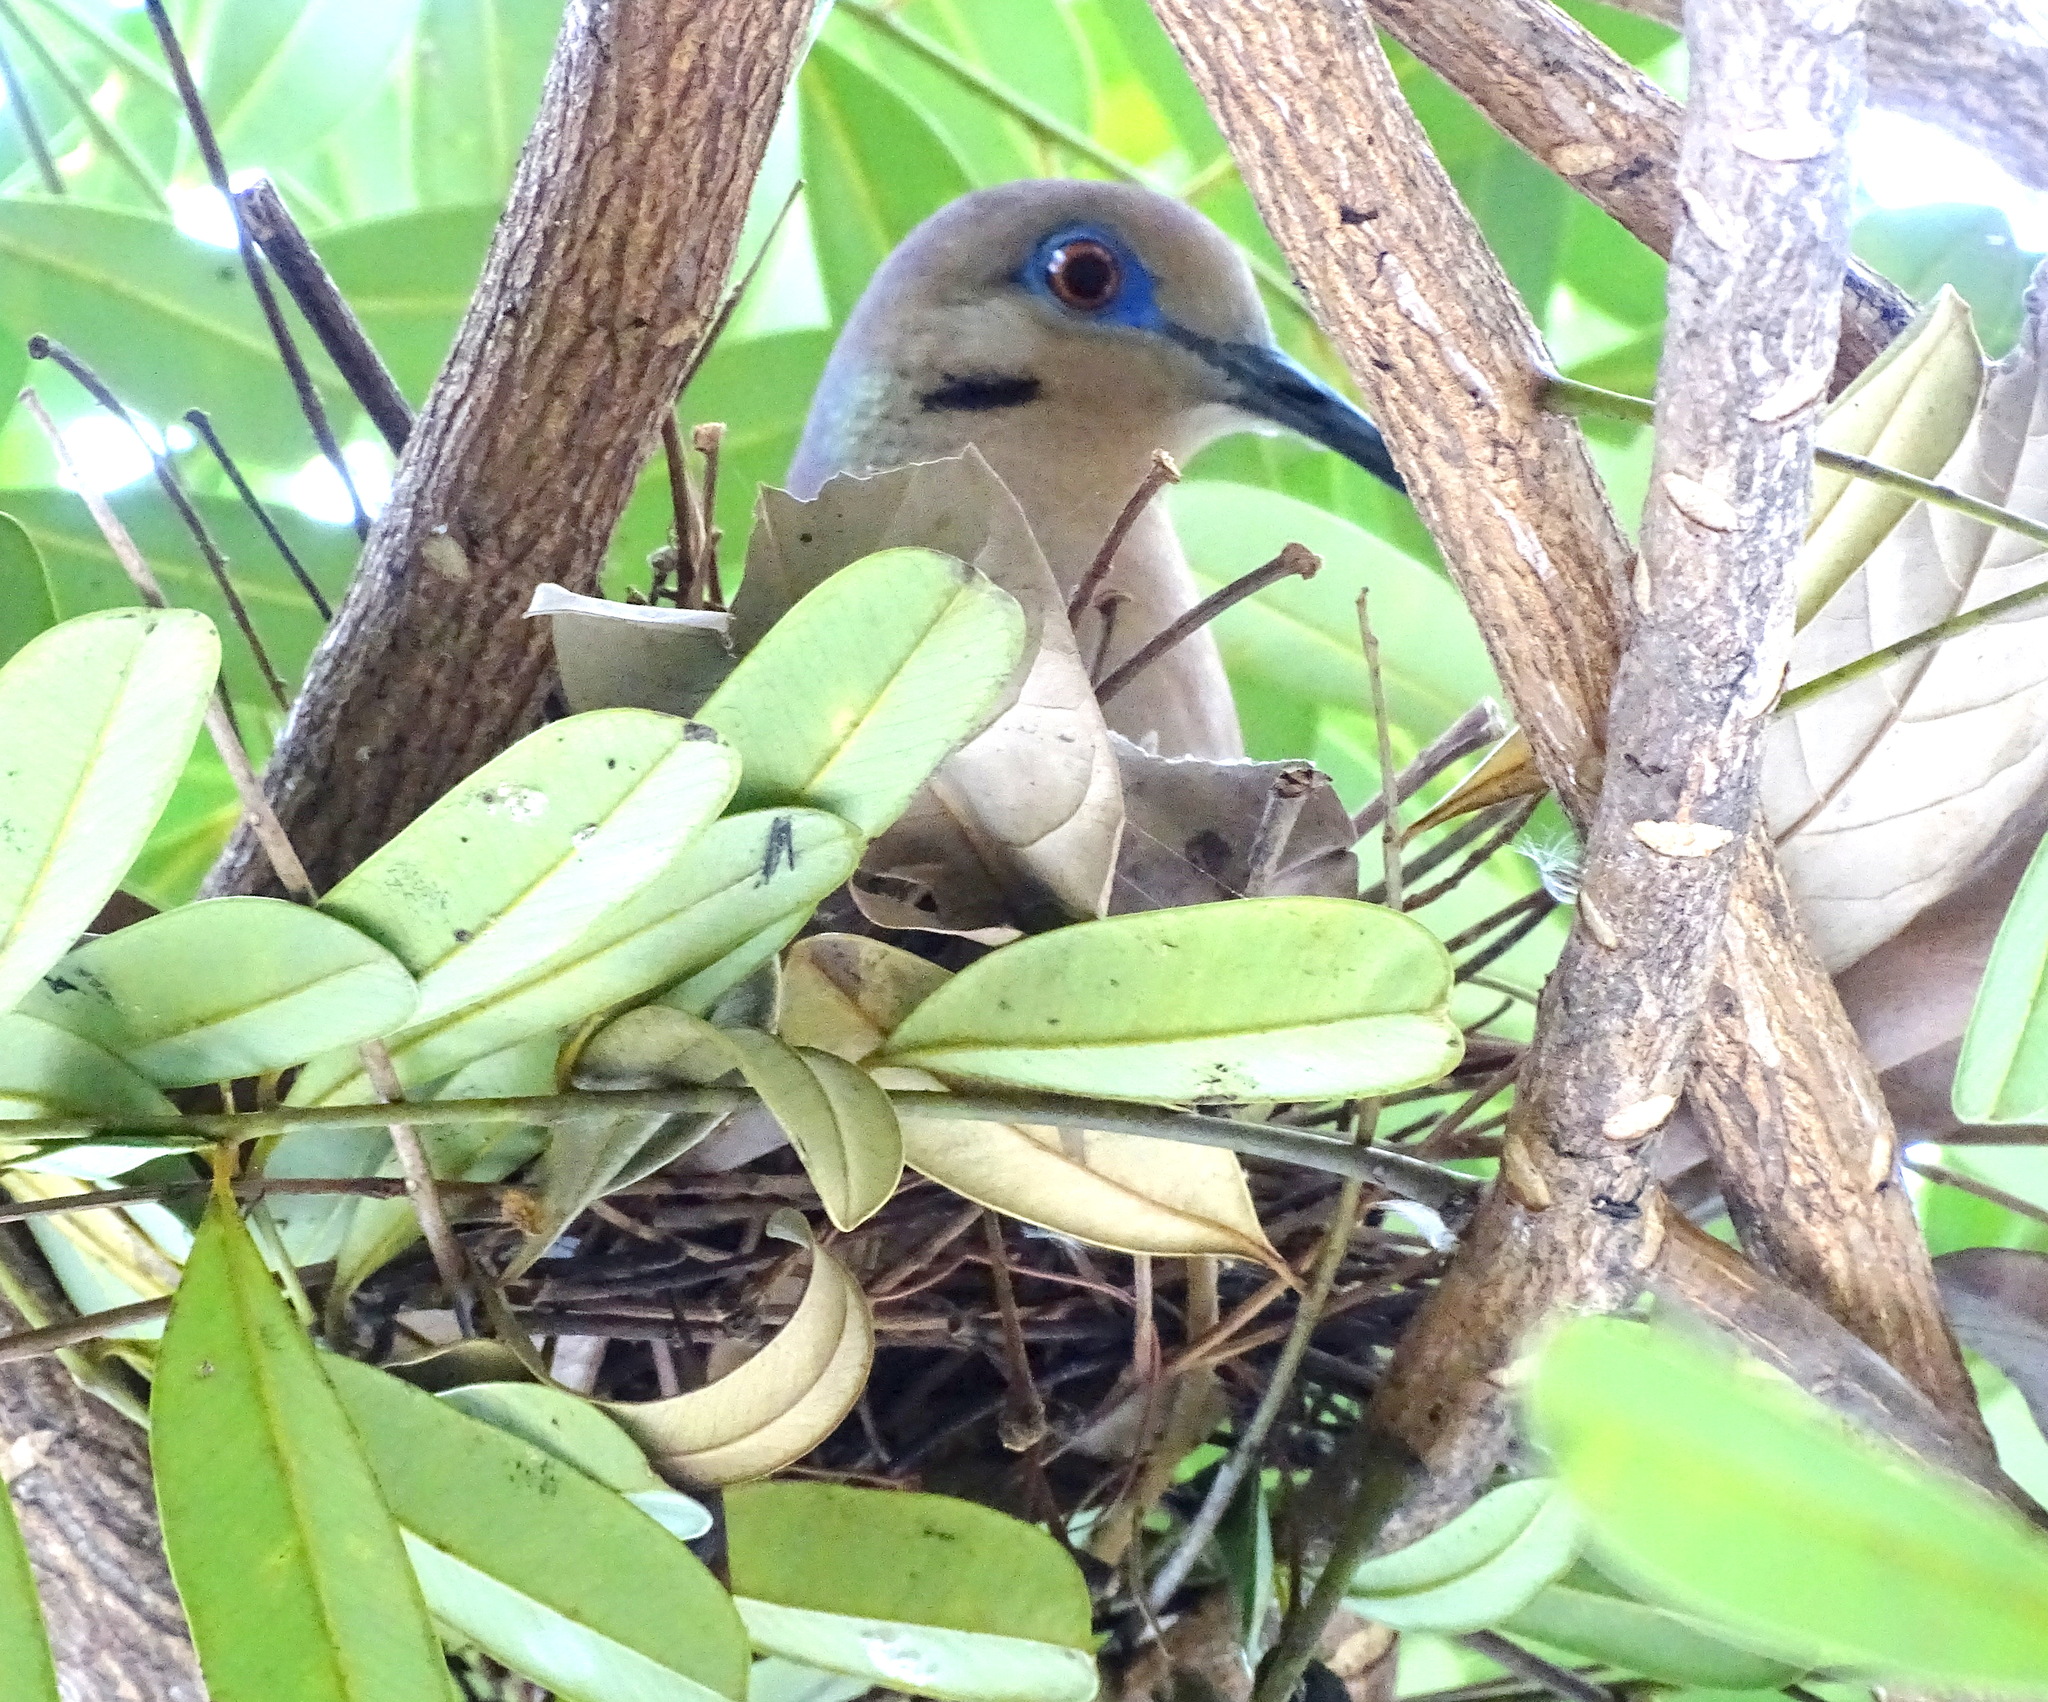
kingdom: Animalia
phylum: Chordata
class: Aves
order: Columbiformes
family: Columbidae
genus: Zenaida
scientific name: Zenaida asiatica
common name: White-winged dove
